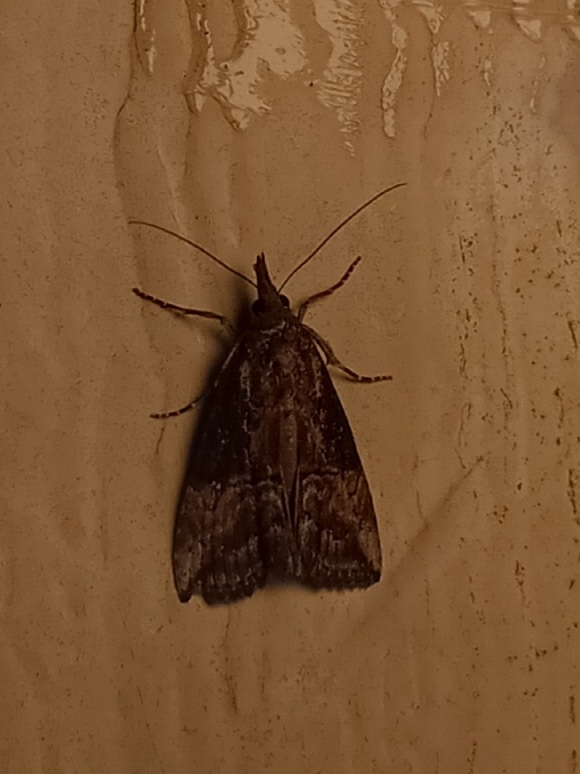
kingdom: Animalia
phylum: Arthropoda
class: Insecta
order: Lepidoptera
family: Erebidae
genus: Hypena
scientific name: Hypena scabra
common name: Green cloverworm
